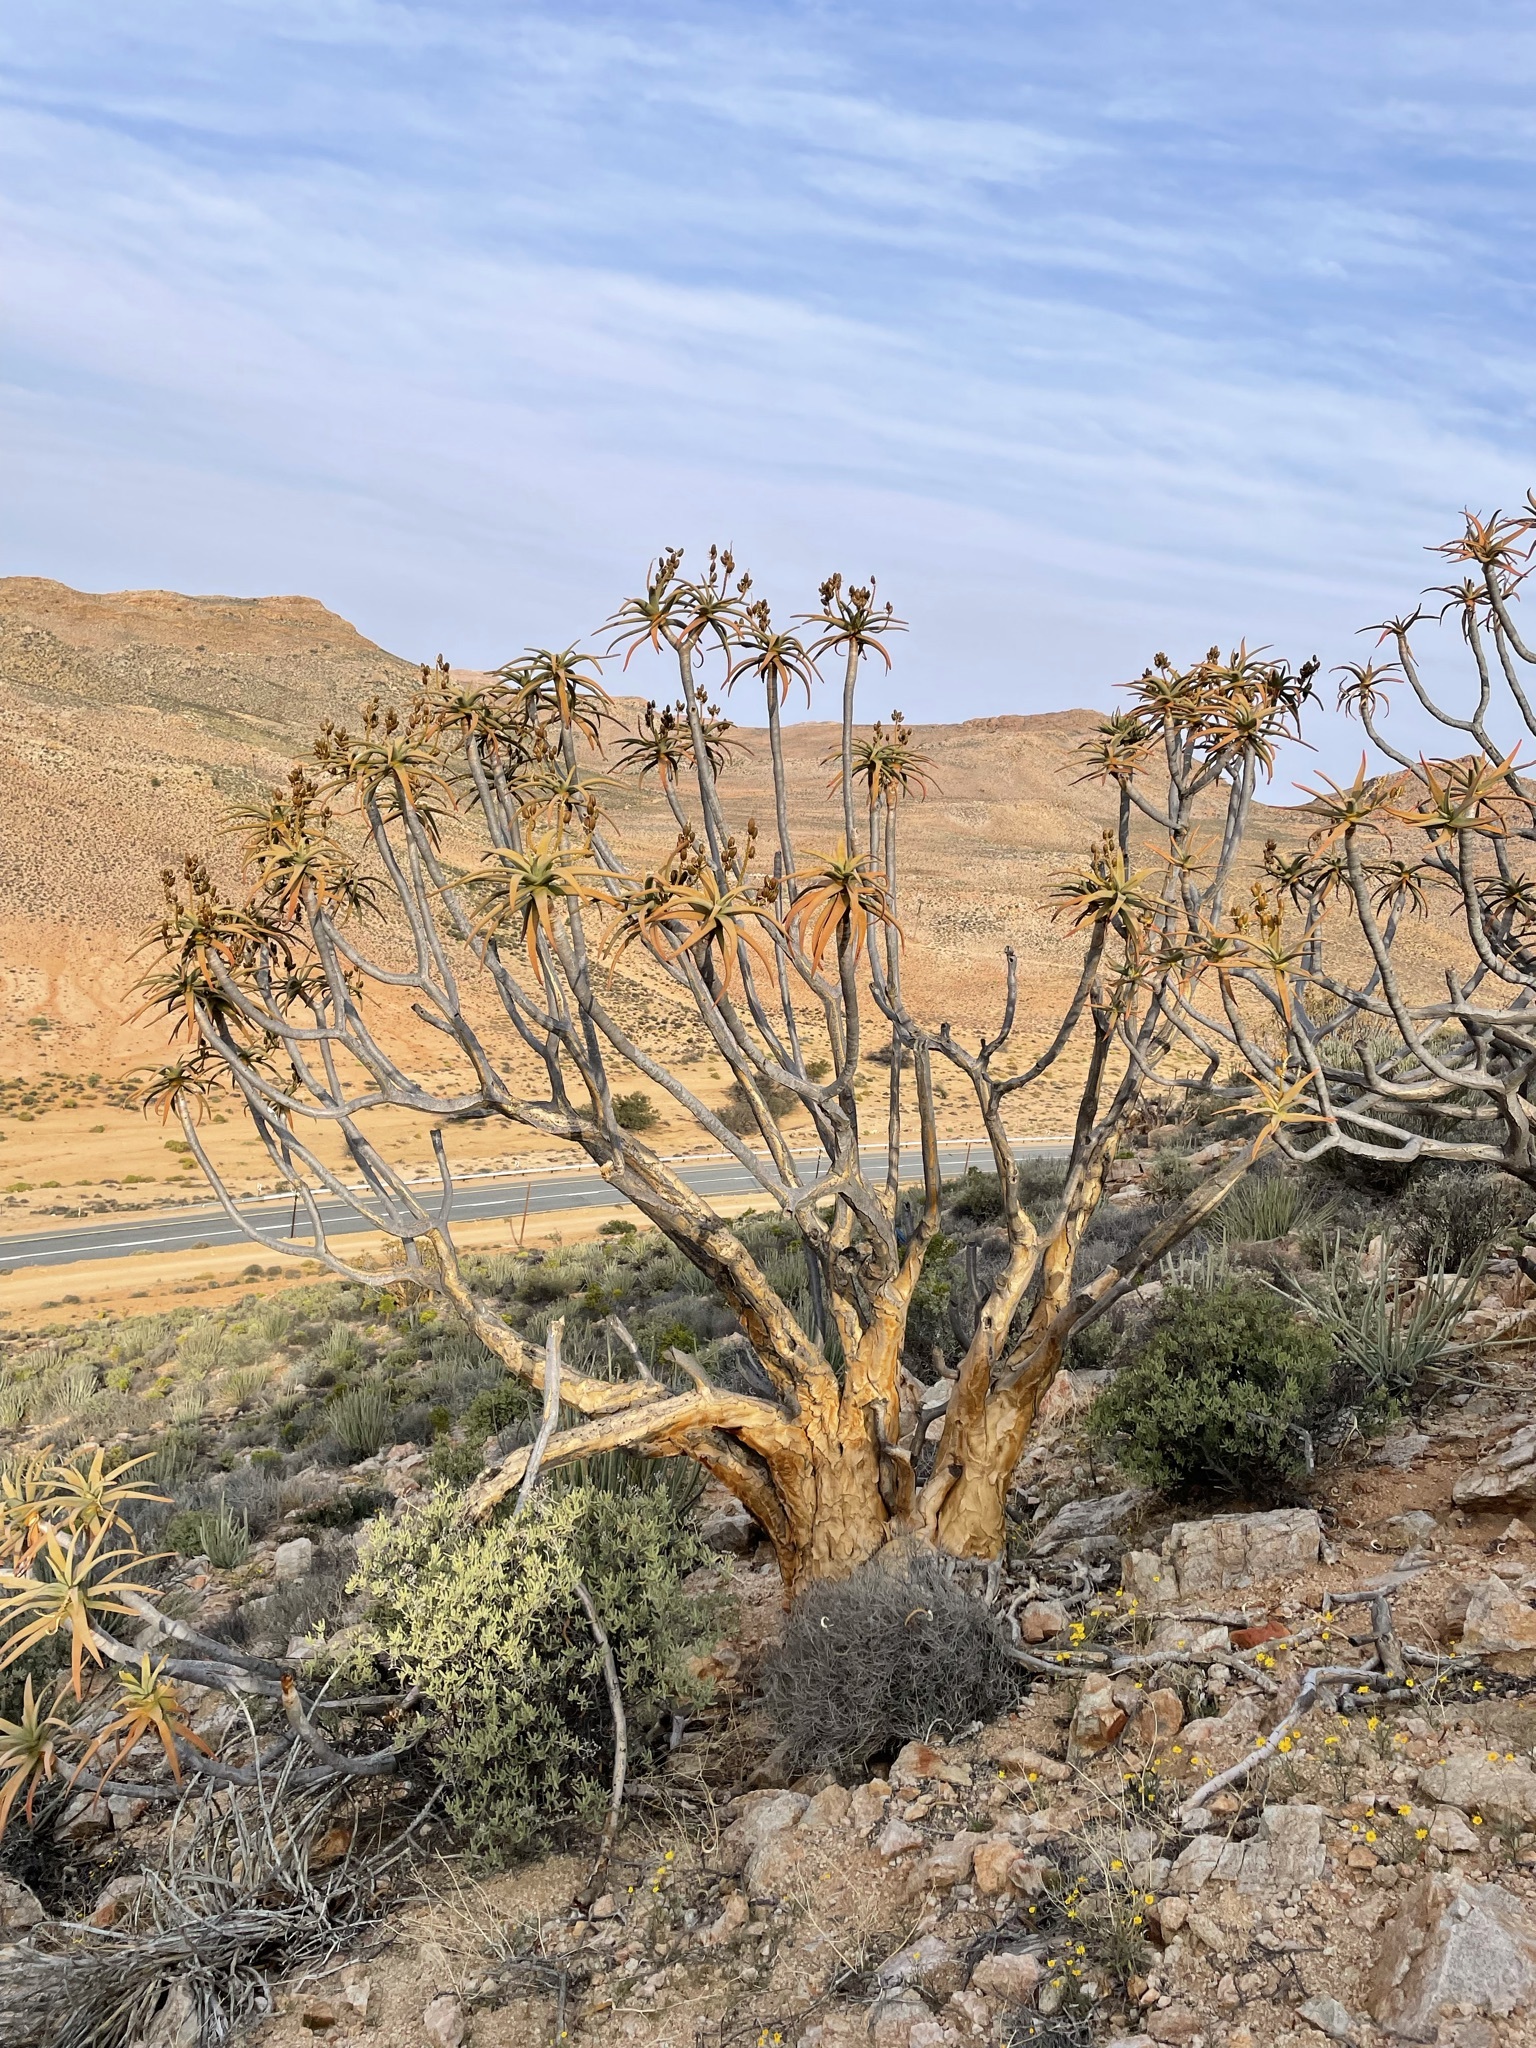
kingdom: Plantae
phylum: Tracheophyta
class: Liliopsida
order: Asparagales
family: Asphodelaceae
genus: Aloidendron
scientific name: Aloidendron dichotomum
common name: Quiver tree
